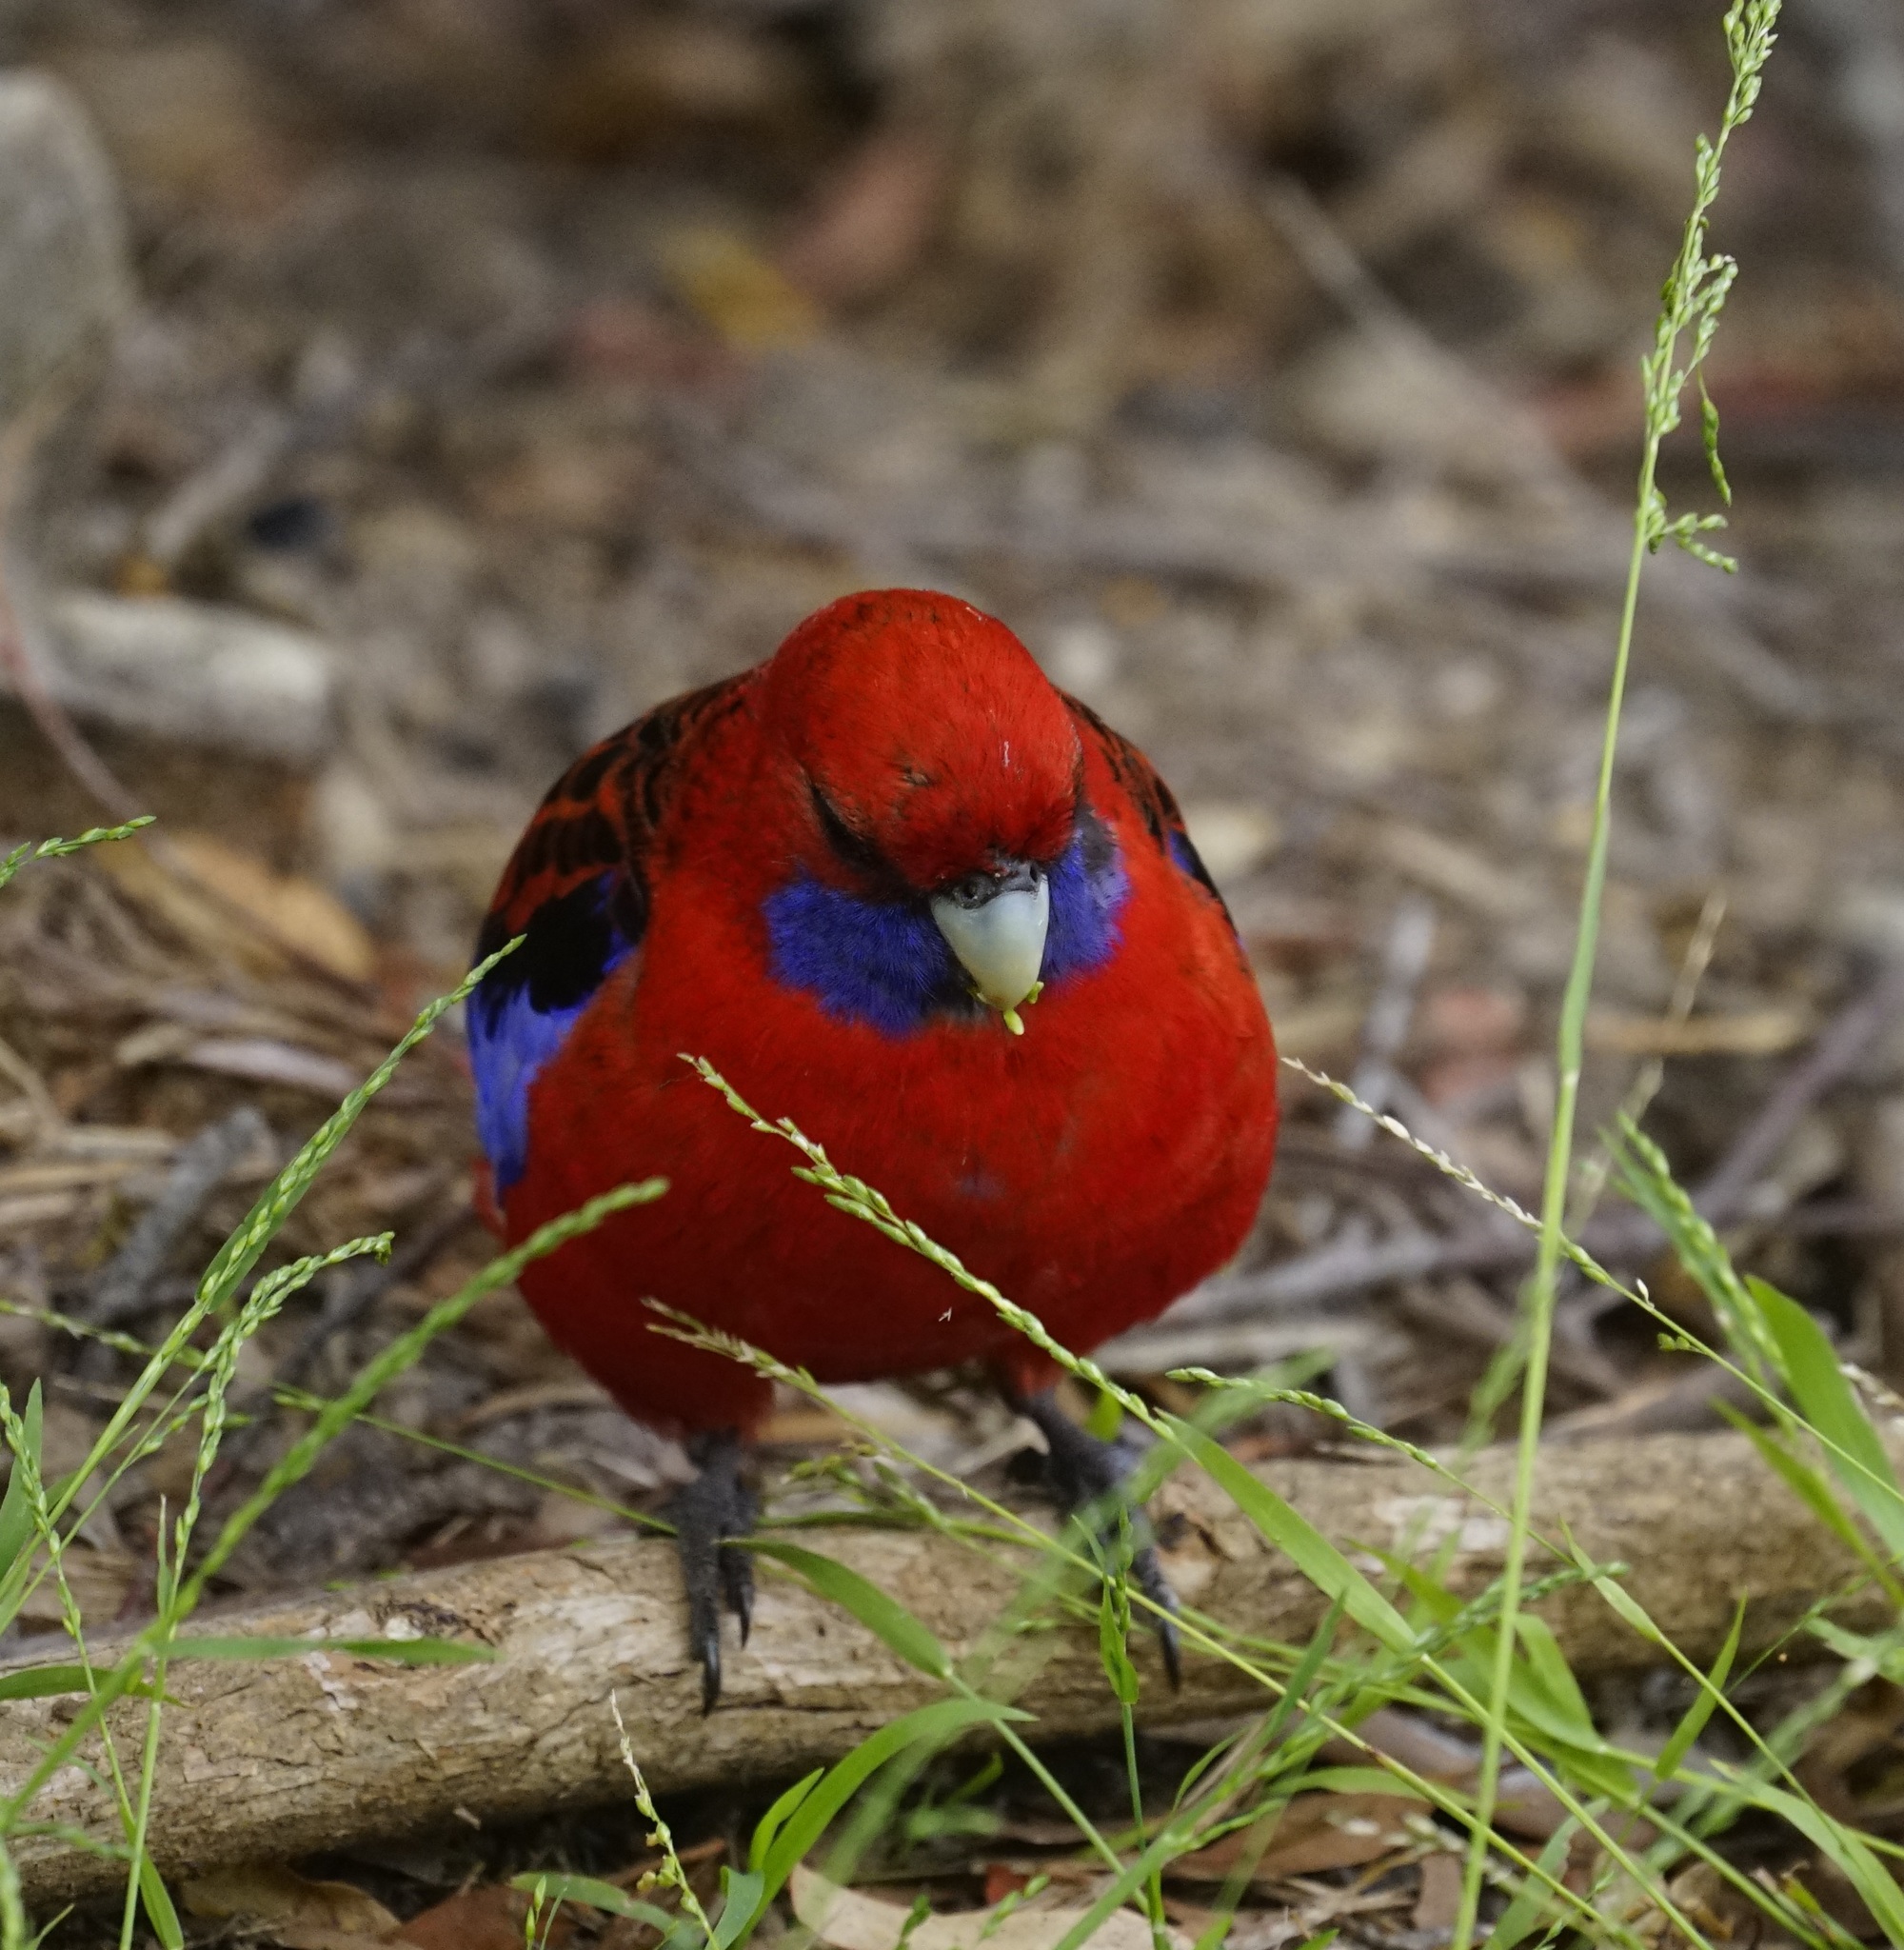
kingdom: Animalia
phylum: Chordata
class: Aves
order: Psittaciformes
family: Psittacidae
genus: Platycercus
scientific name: Platycercus elegans
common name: Crimson rosella
